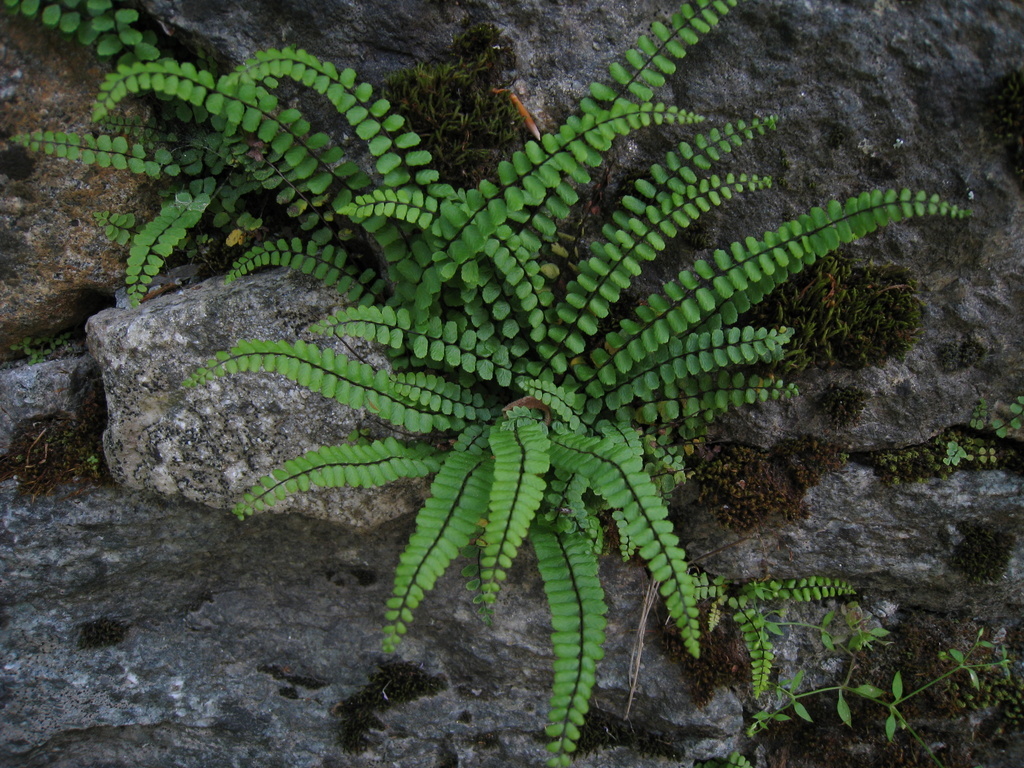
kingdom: Plantae
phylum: Tracheophyta
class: Polypodiopsida
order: Polypodiales
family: Aspleniaceae
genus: Asplenium
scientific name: Asplenium trichomanes
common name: Maidenhair spleenwort
